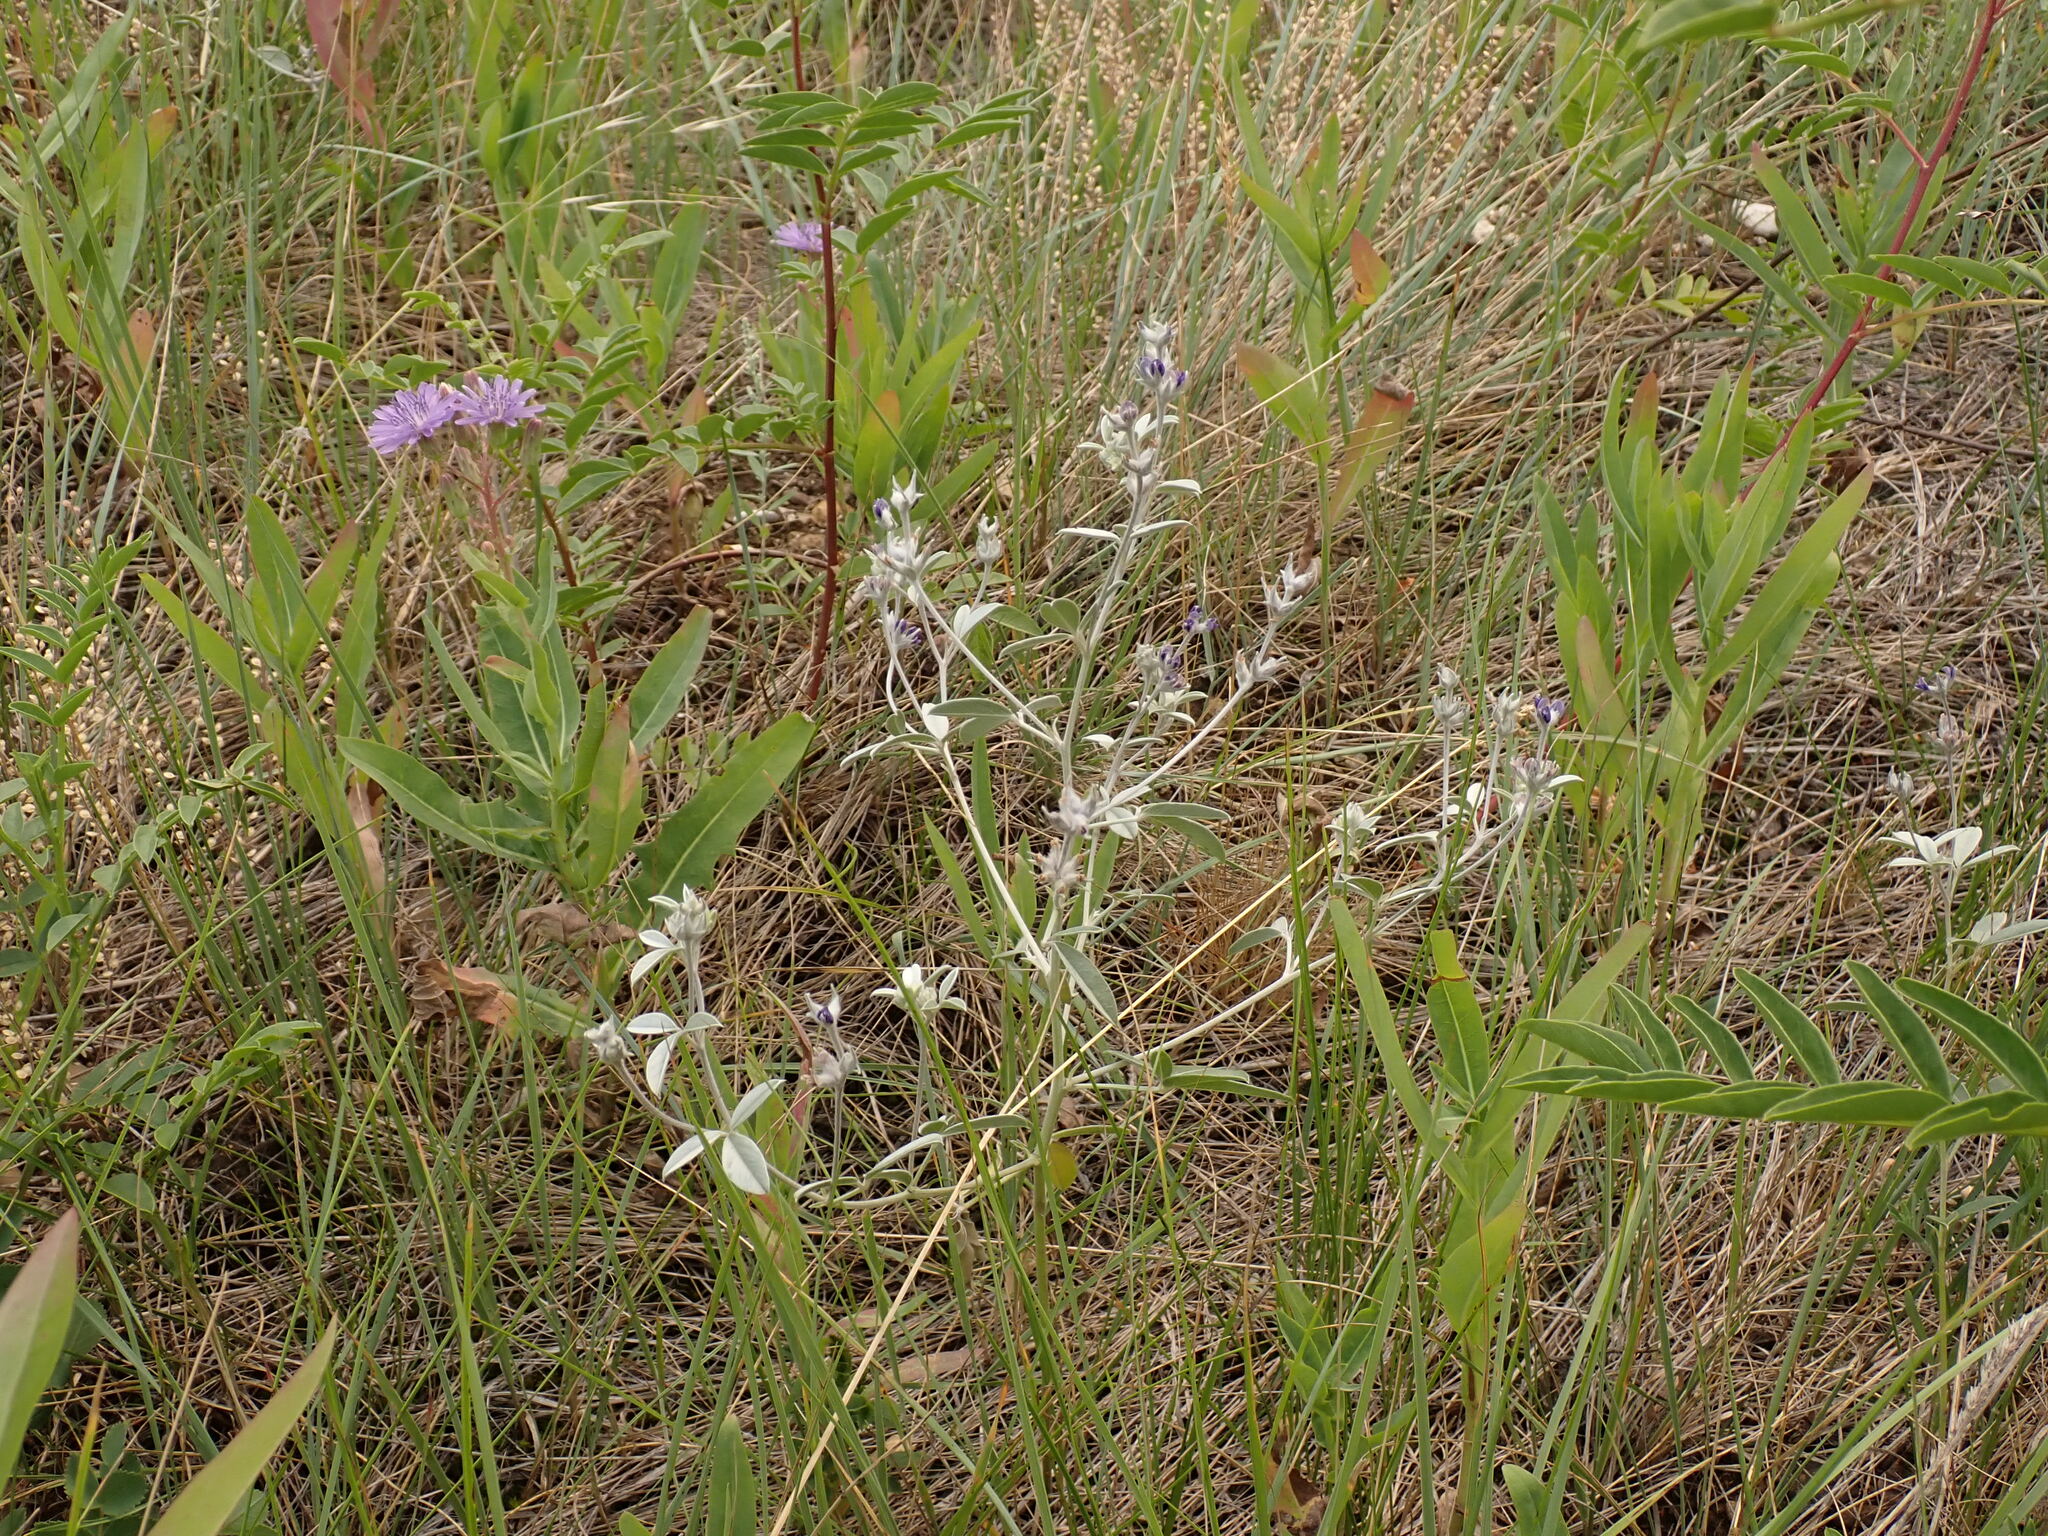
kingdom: Plantae
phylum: Tracheophyta
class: Magnoliopsida
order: Fabales
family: Fabaceae
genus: Pediomelum
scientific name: Pediomelum argophyllum
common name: Silver-leaved indian breadroot
